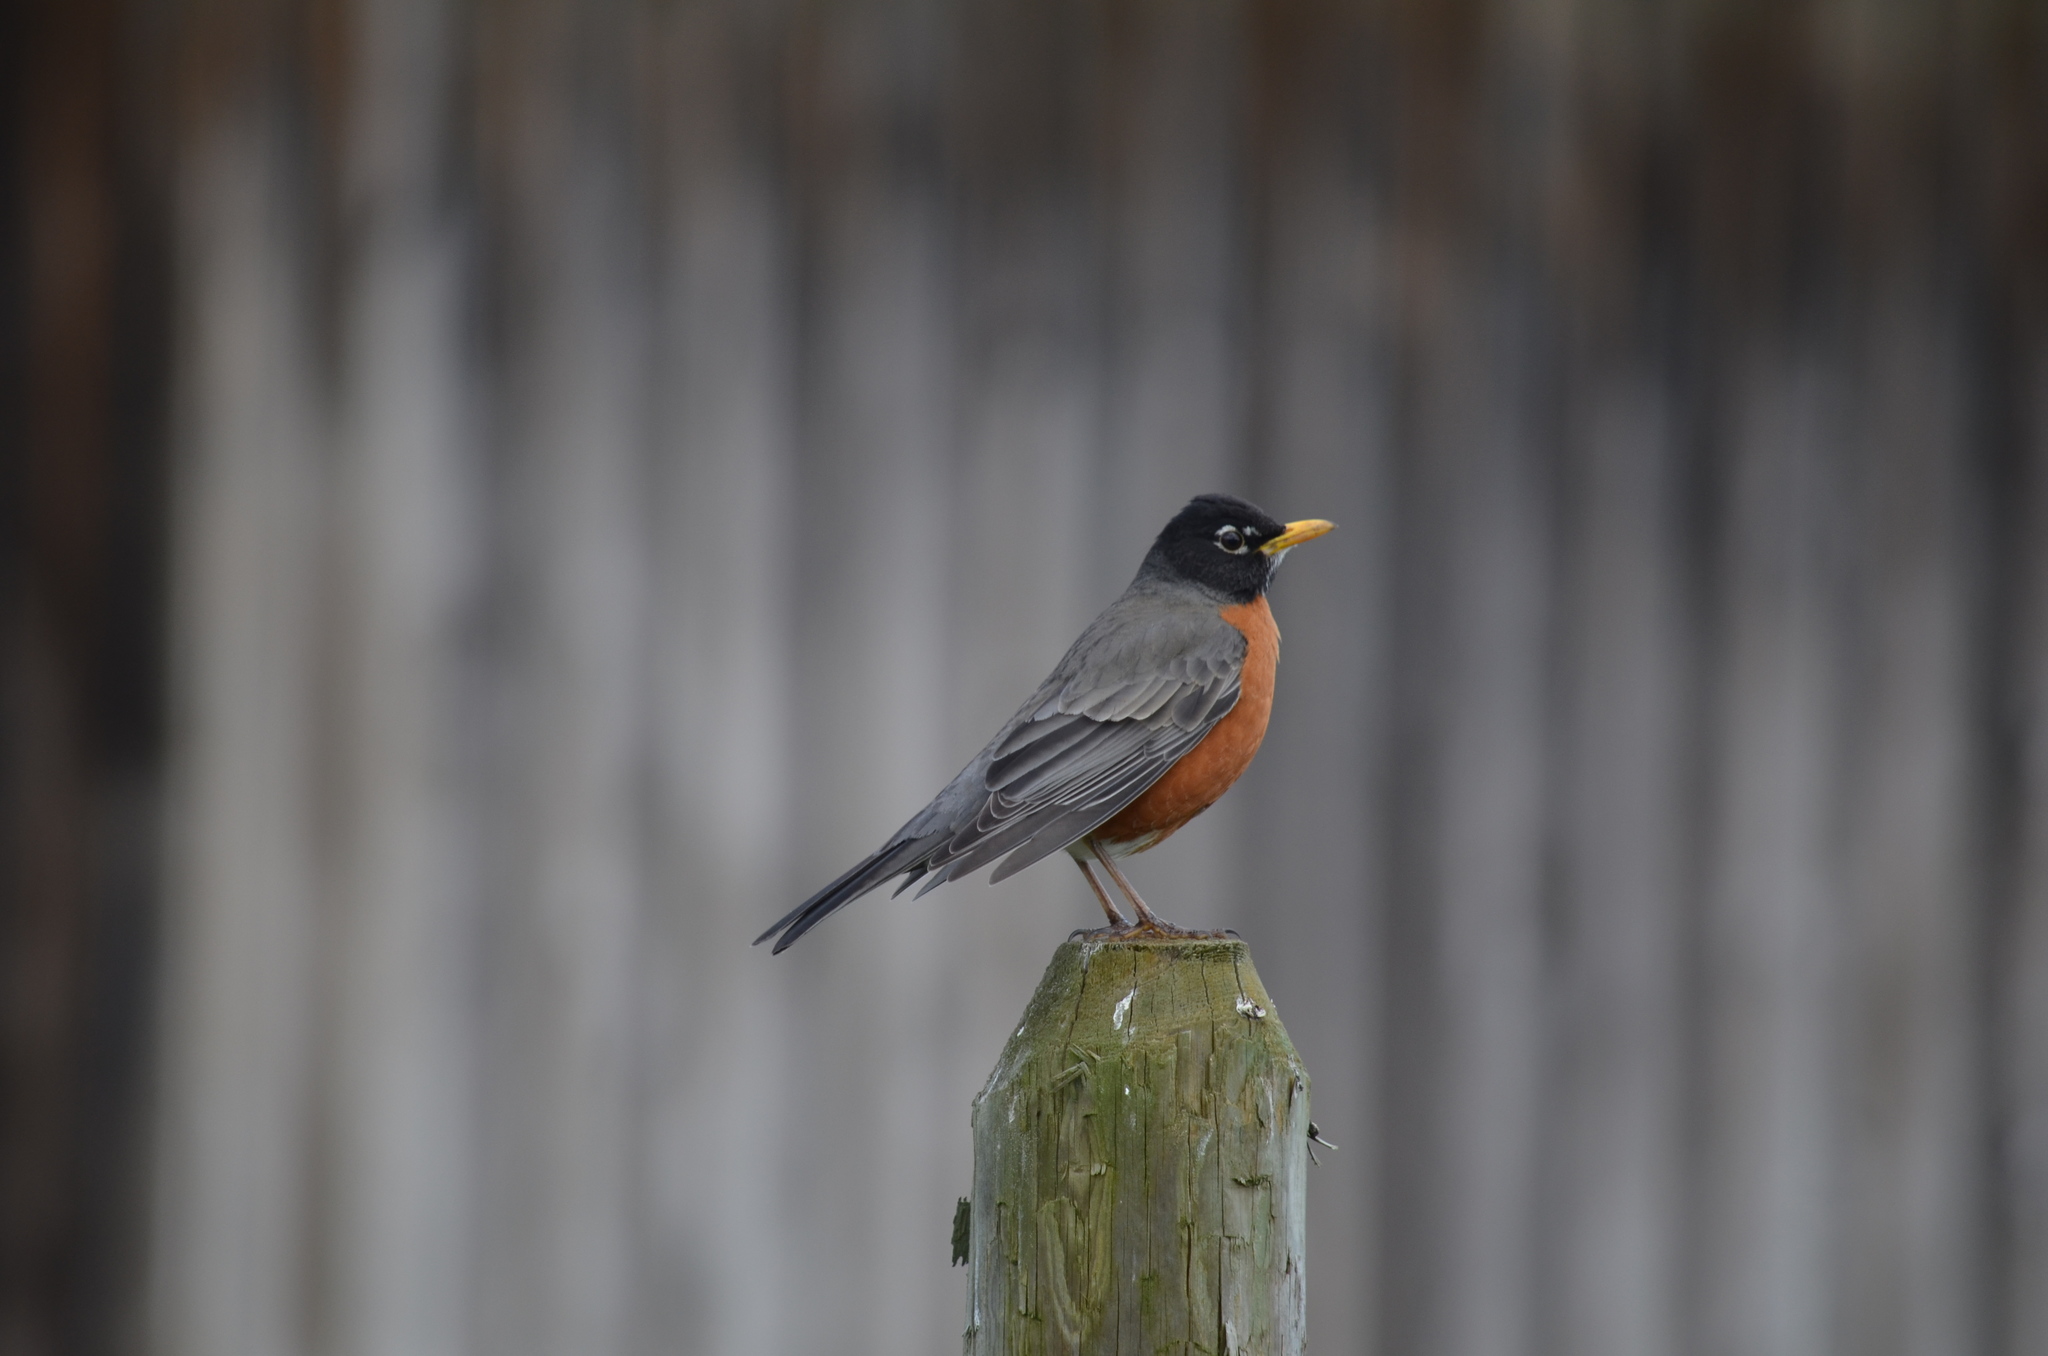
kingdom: Animalia
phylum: Chordata
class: Aves
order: Passeriformes
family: Turdidae
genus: Turdus
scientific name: Turdus migratorius
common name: American robin
